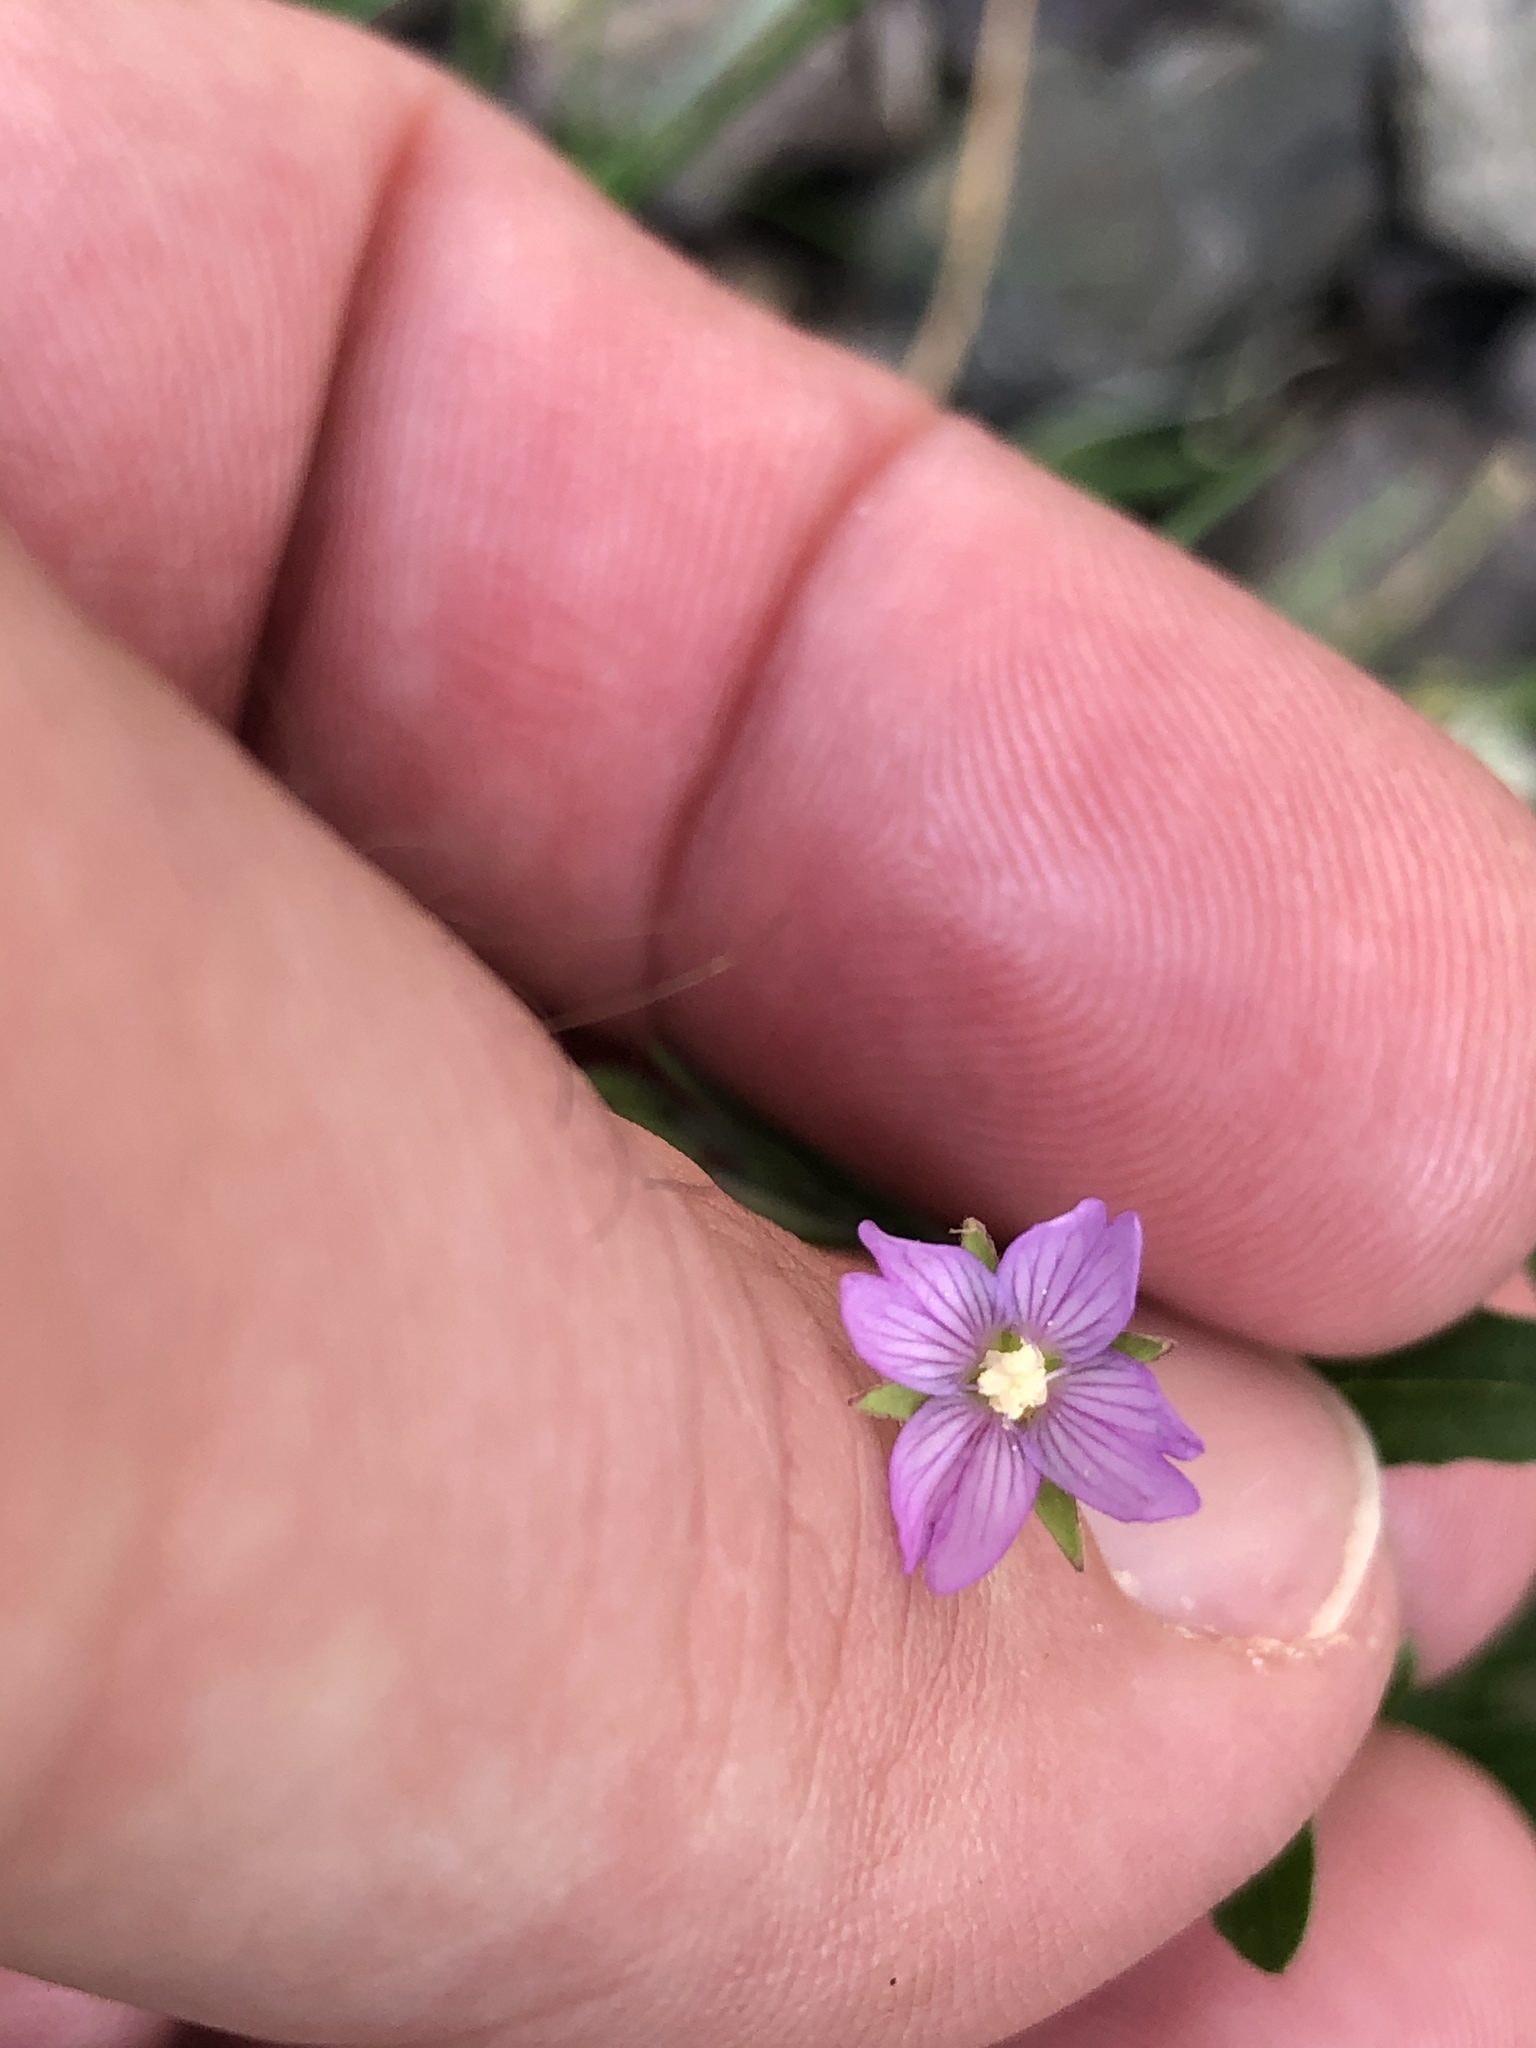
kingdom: Plantae
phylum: Tracheophyta
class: Magnoliopsida
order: Myrtales
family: Onagraceae
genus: Epilobium
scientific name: Epilobium obscurum
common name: Short-fruited willowherb
